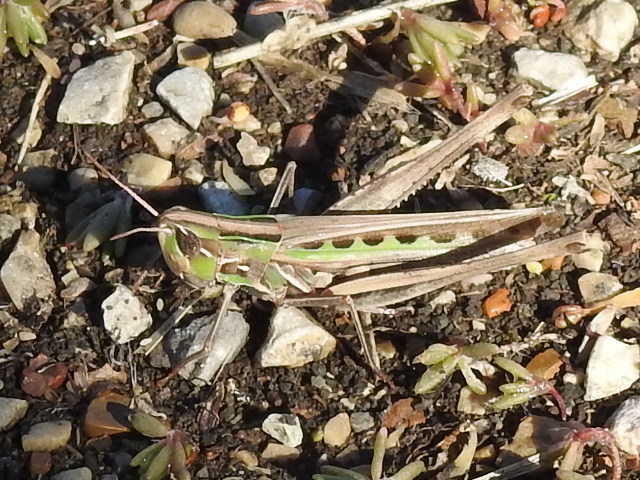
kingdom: Animalia
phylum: Arthropoda
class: Insecta
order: Orthoptera
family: Acrididae
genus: Syrbula
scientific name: Syrbula admirabilis
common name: Handsome grasshopper
